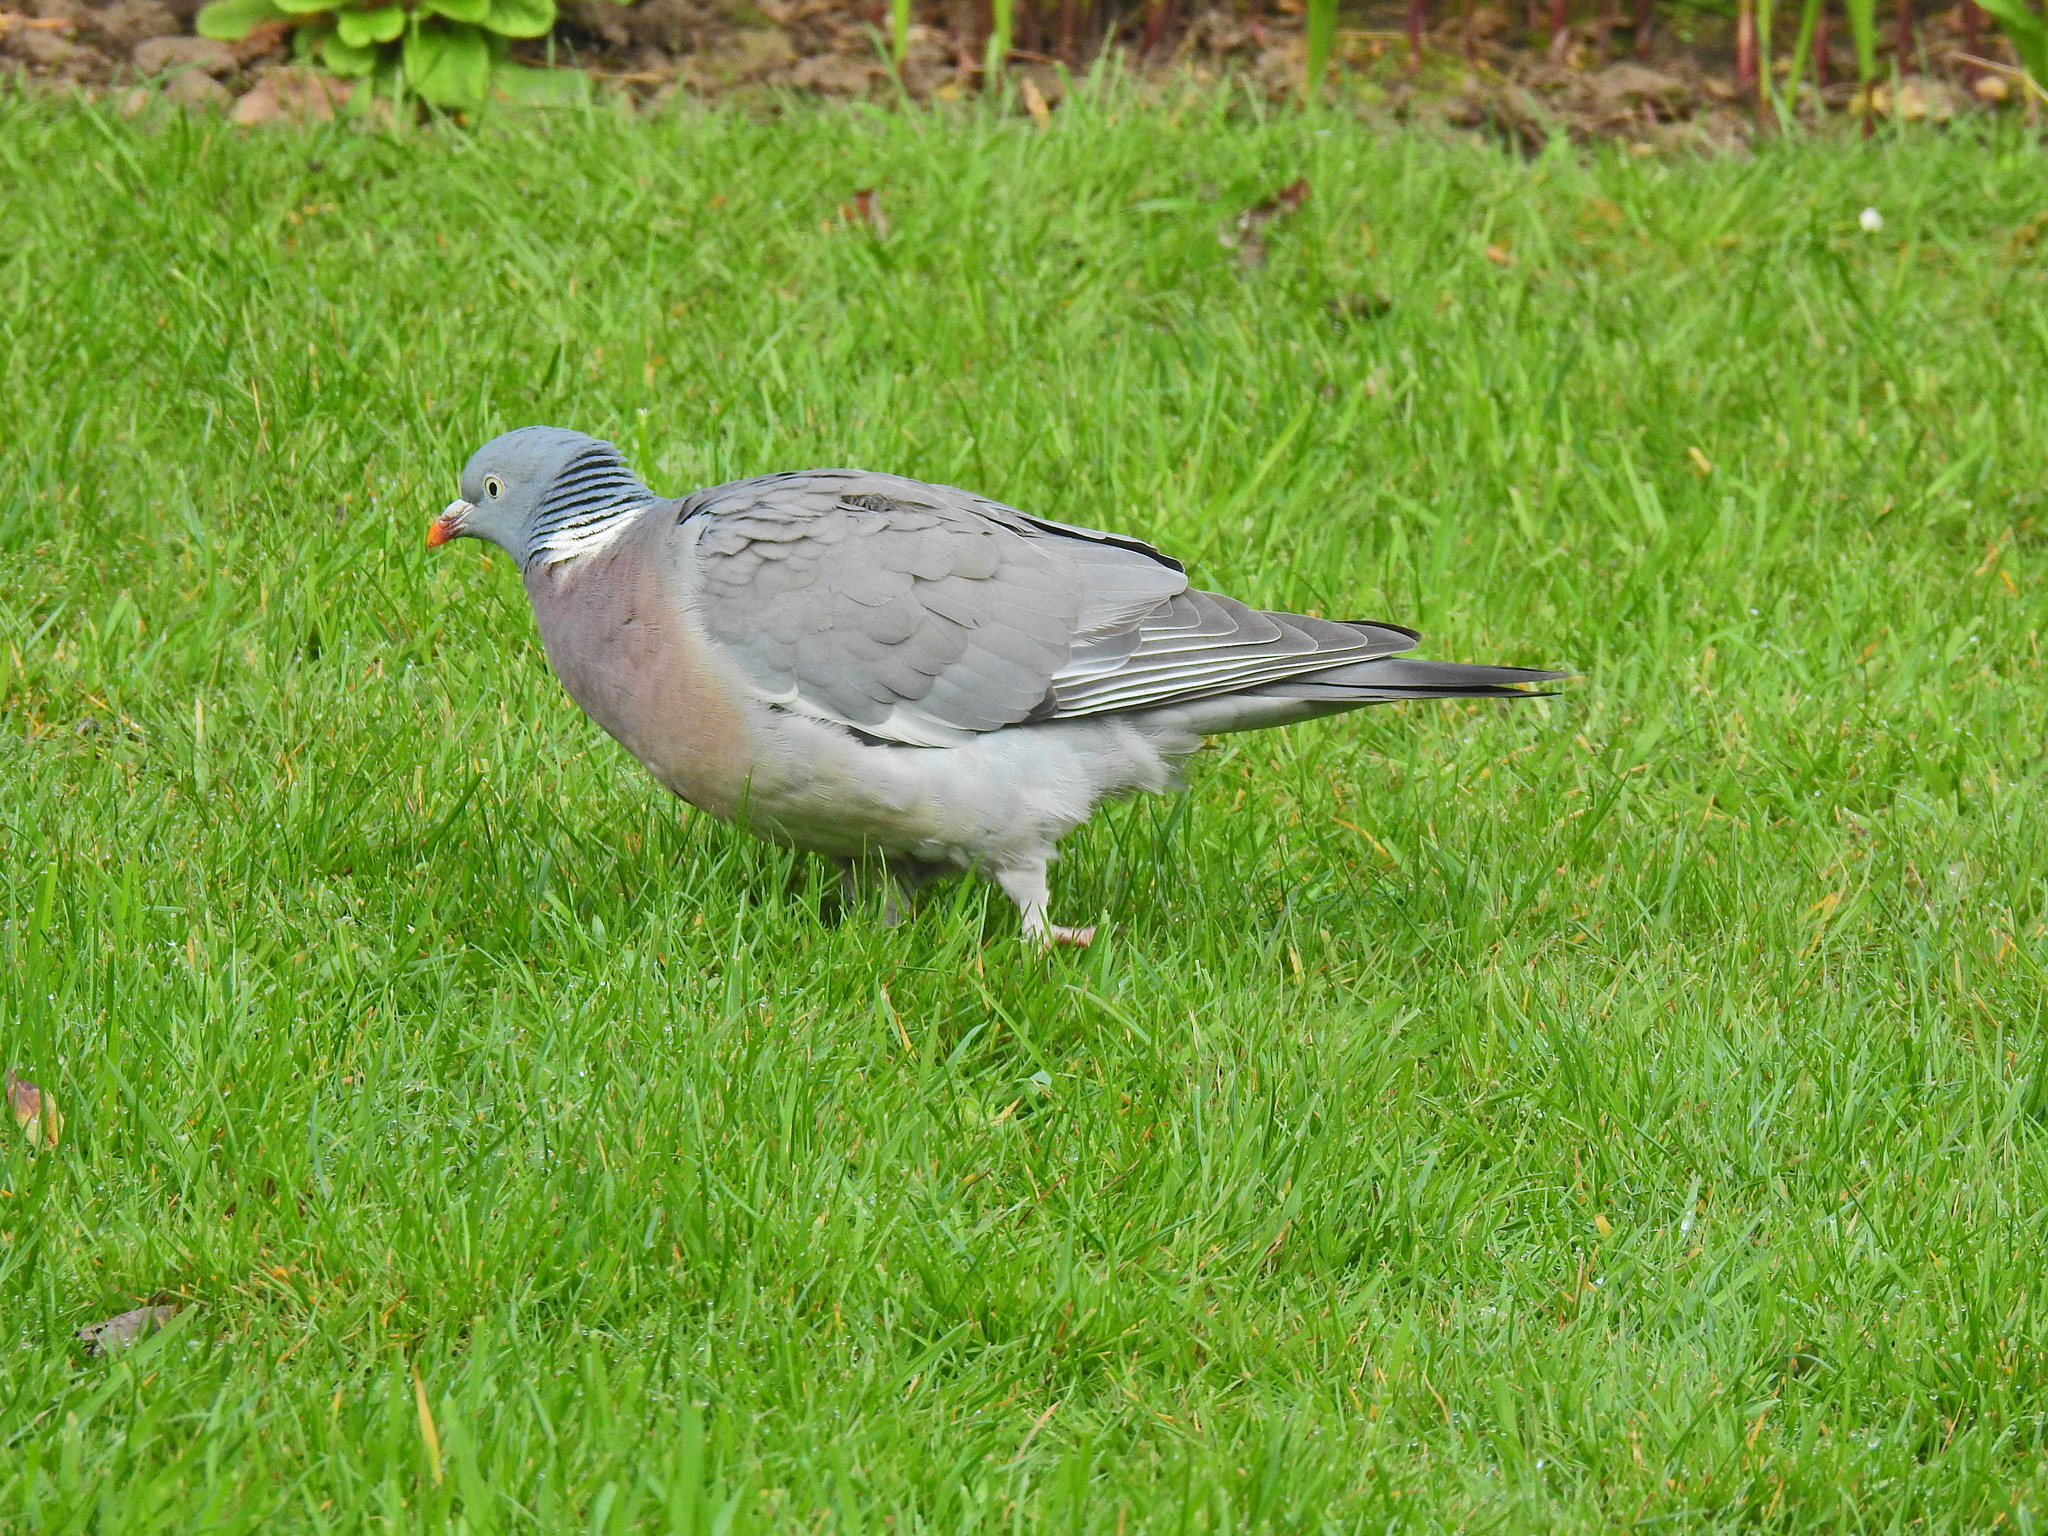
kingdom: Animalia
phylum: Chordata
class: Aves
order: Columbiformes
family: Columbidae
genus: Columba
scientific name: Columba palumbus
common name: Common wood pigeon
